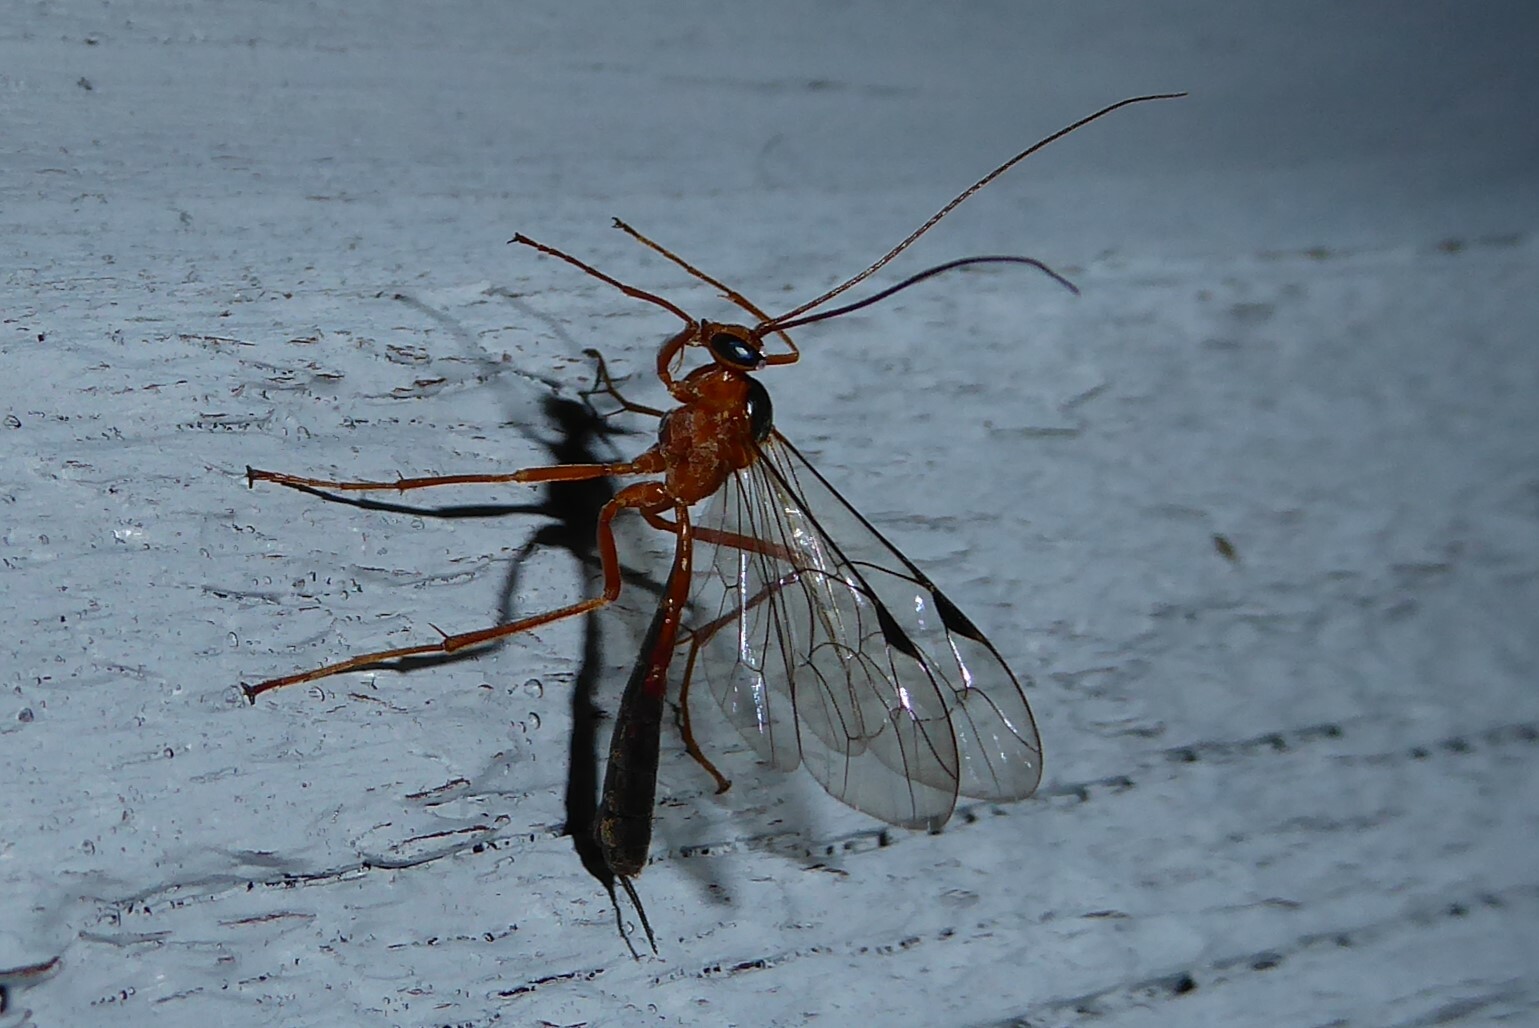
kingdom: Animalia
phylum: Arthropoda
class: Insecta
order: Hymenoptera
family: Ichneumonidae
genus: Netelia
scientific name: Netelia ephippiata
